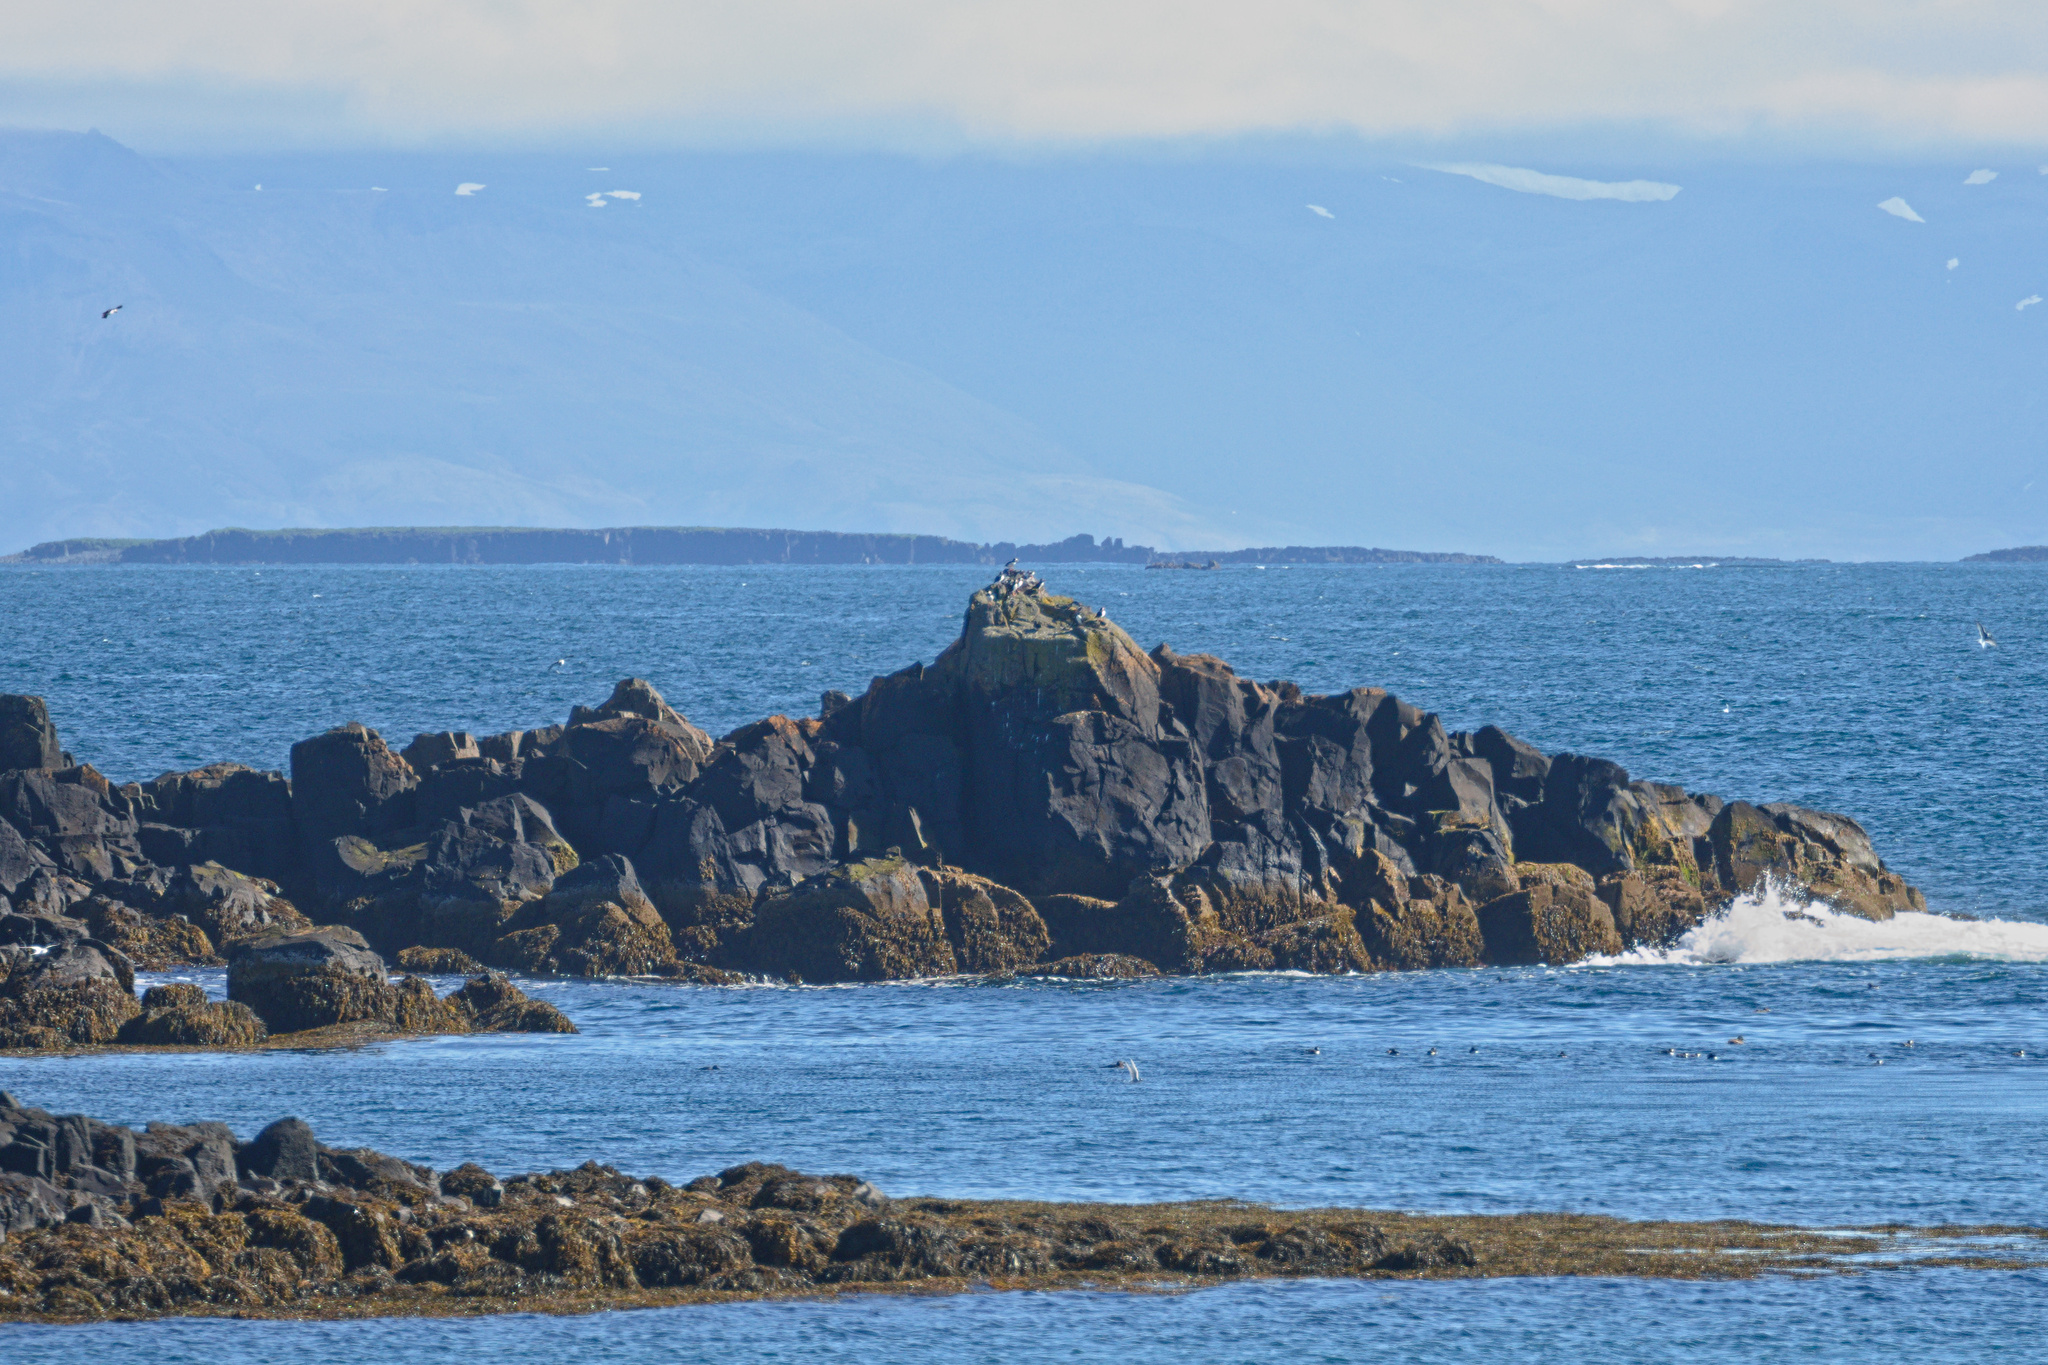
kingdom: Animalia
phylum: Chordata
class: Aves
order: Charadriiformes
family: Alcidae
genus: Fratercula
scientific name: Fratercula arctica
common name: Atlantic puffin
